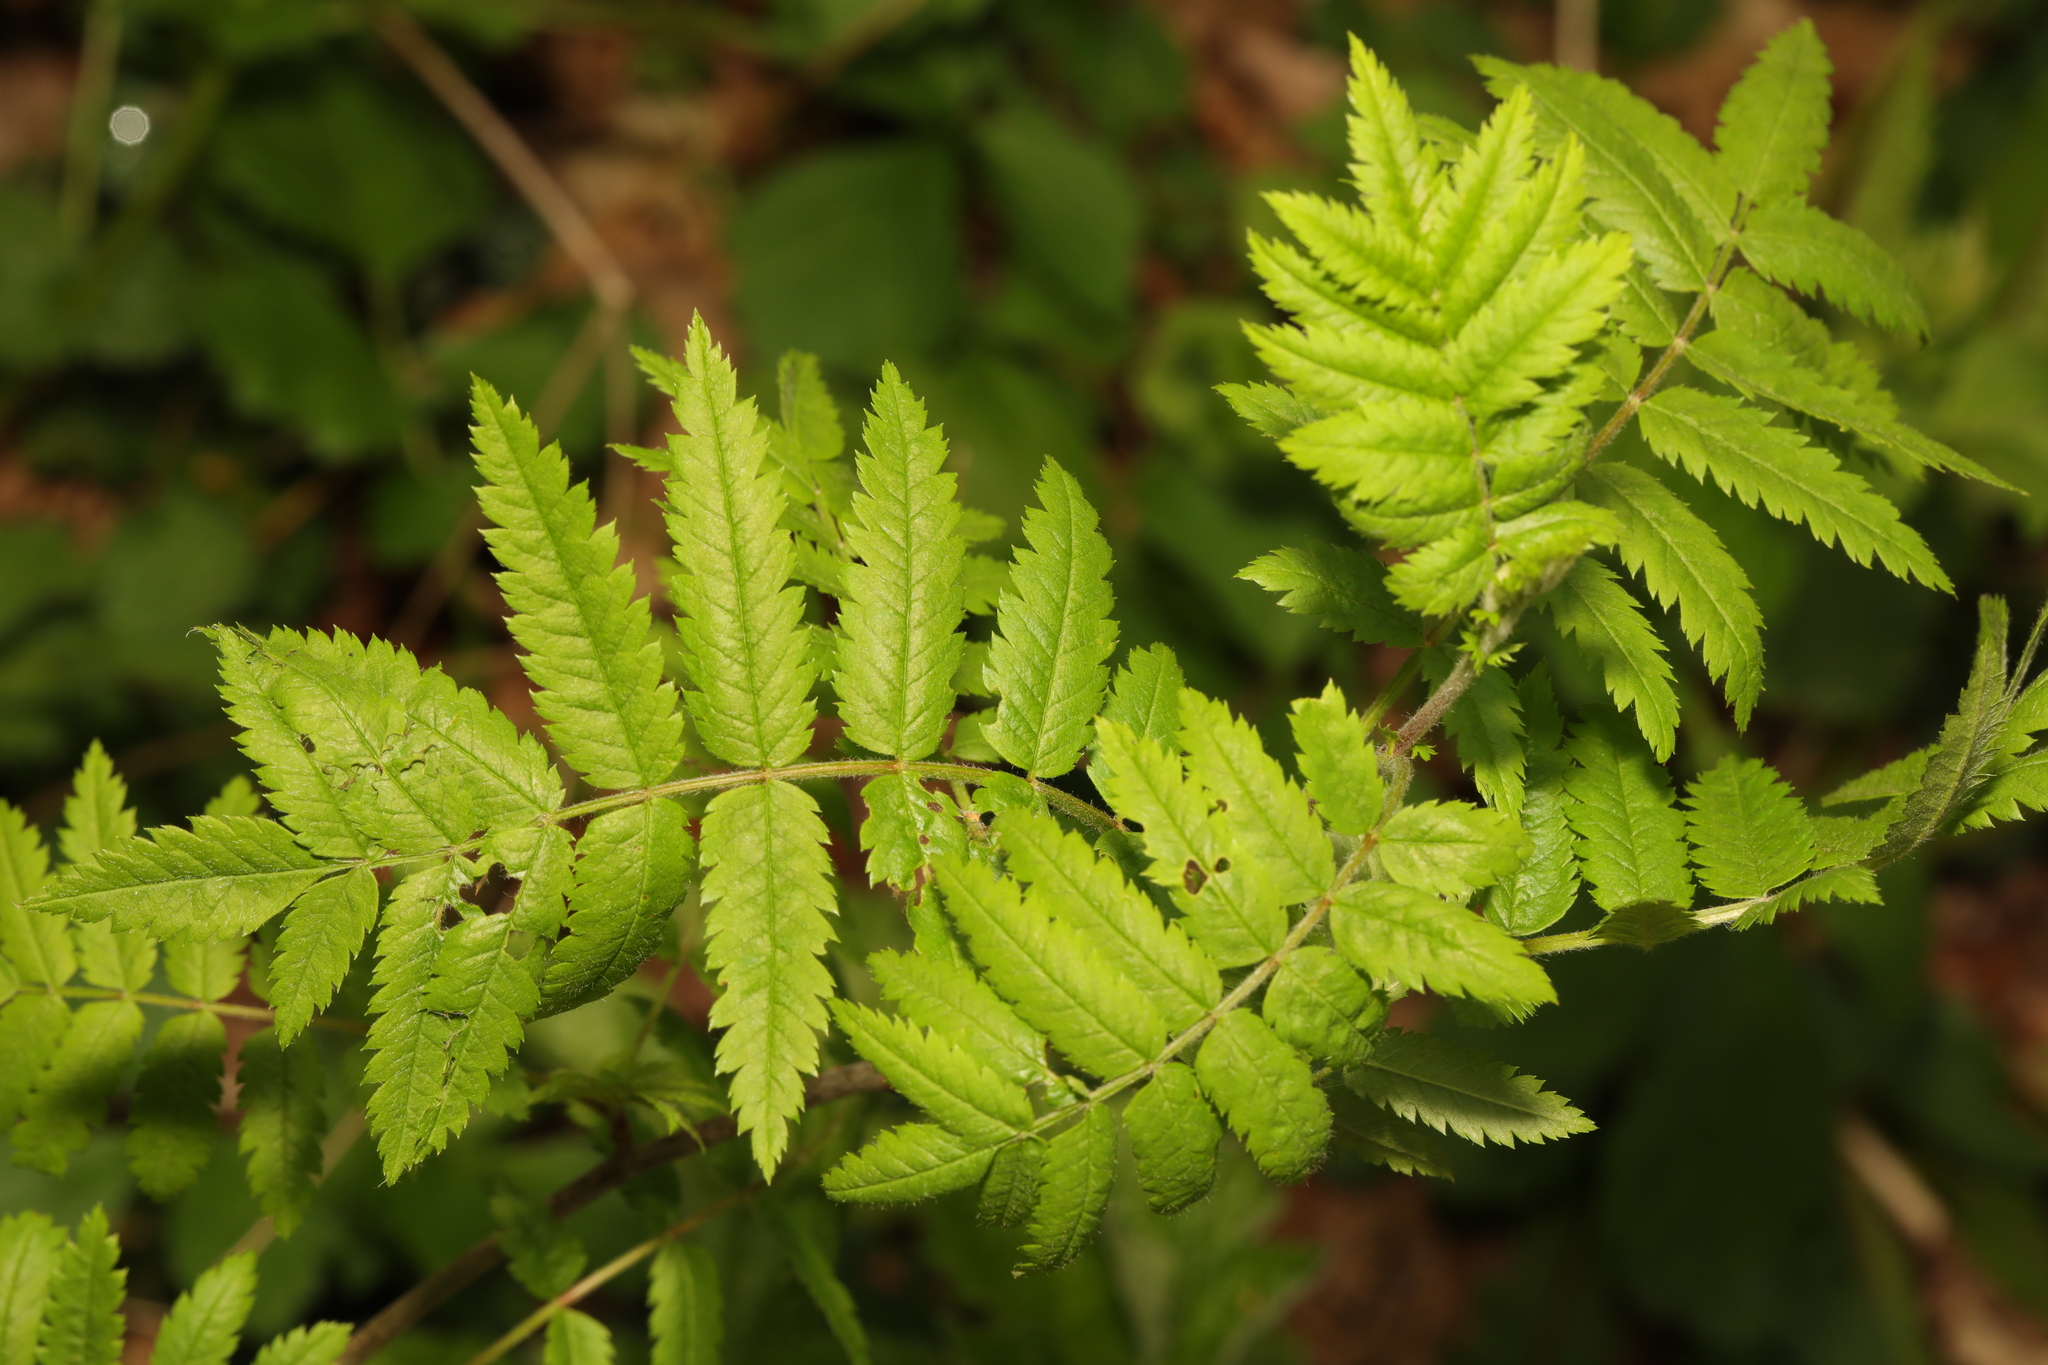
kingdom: Plantae
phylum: Tracheophyta
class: Magnoliopsida
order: Rosales
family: Rosaceae
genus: Sorbus
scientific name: Sorbus aucuparia
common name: Rowan
